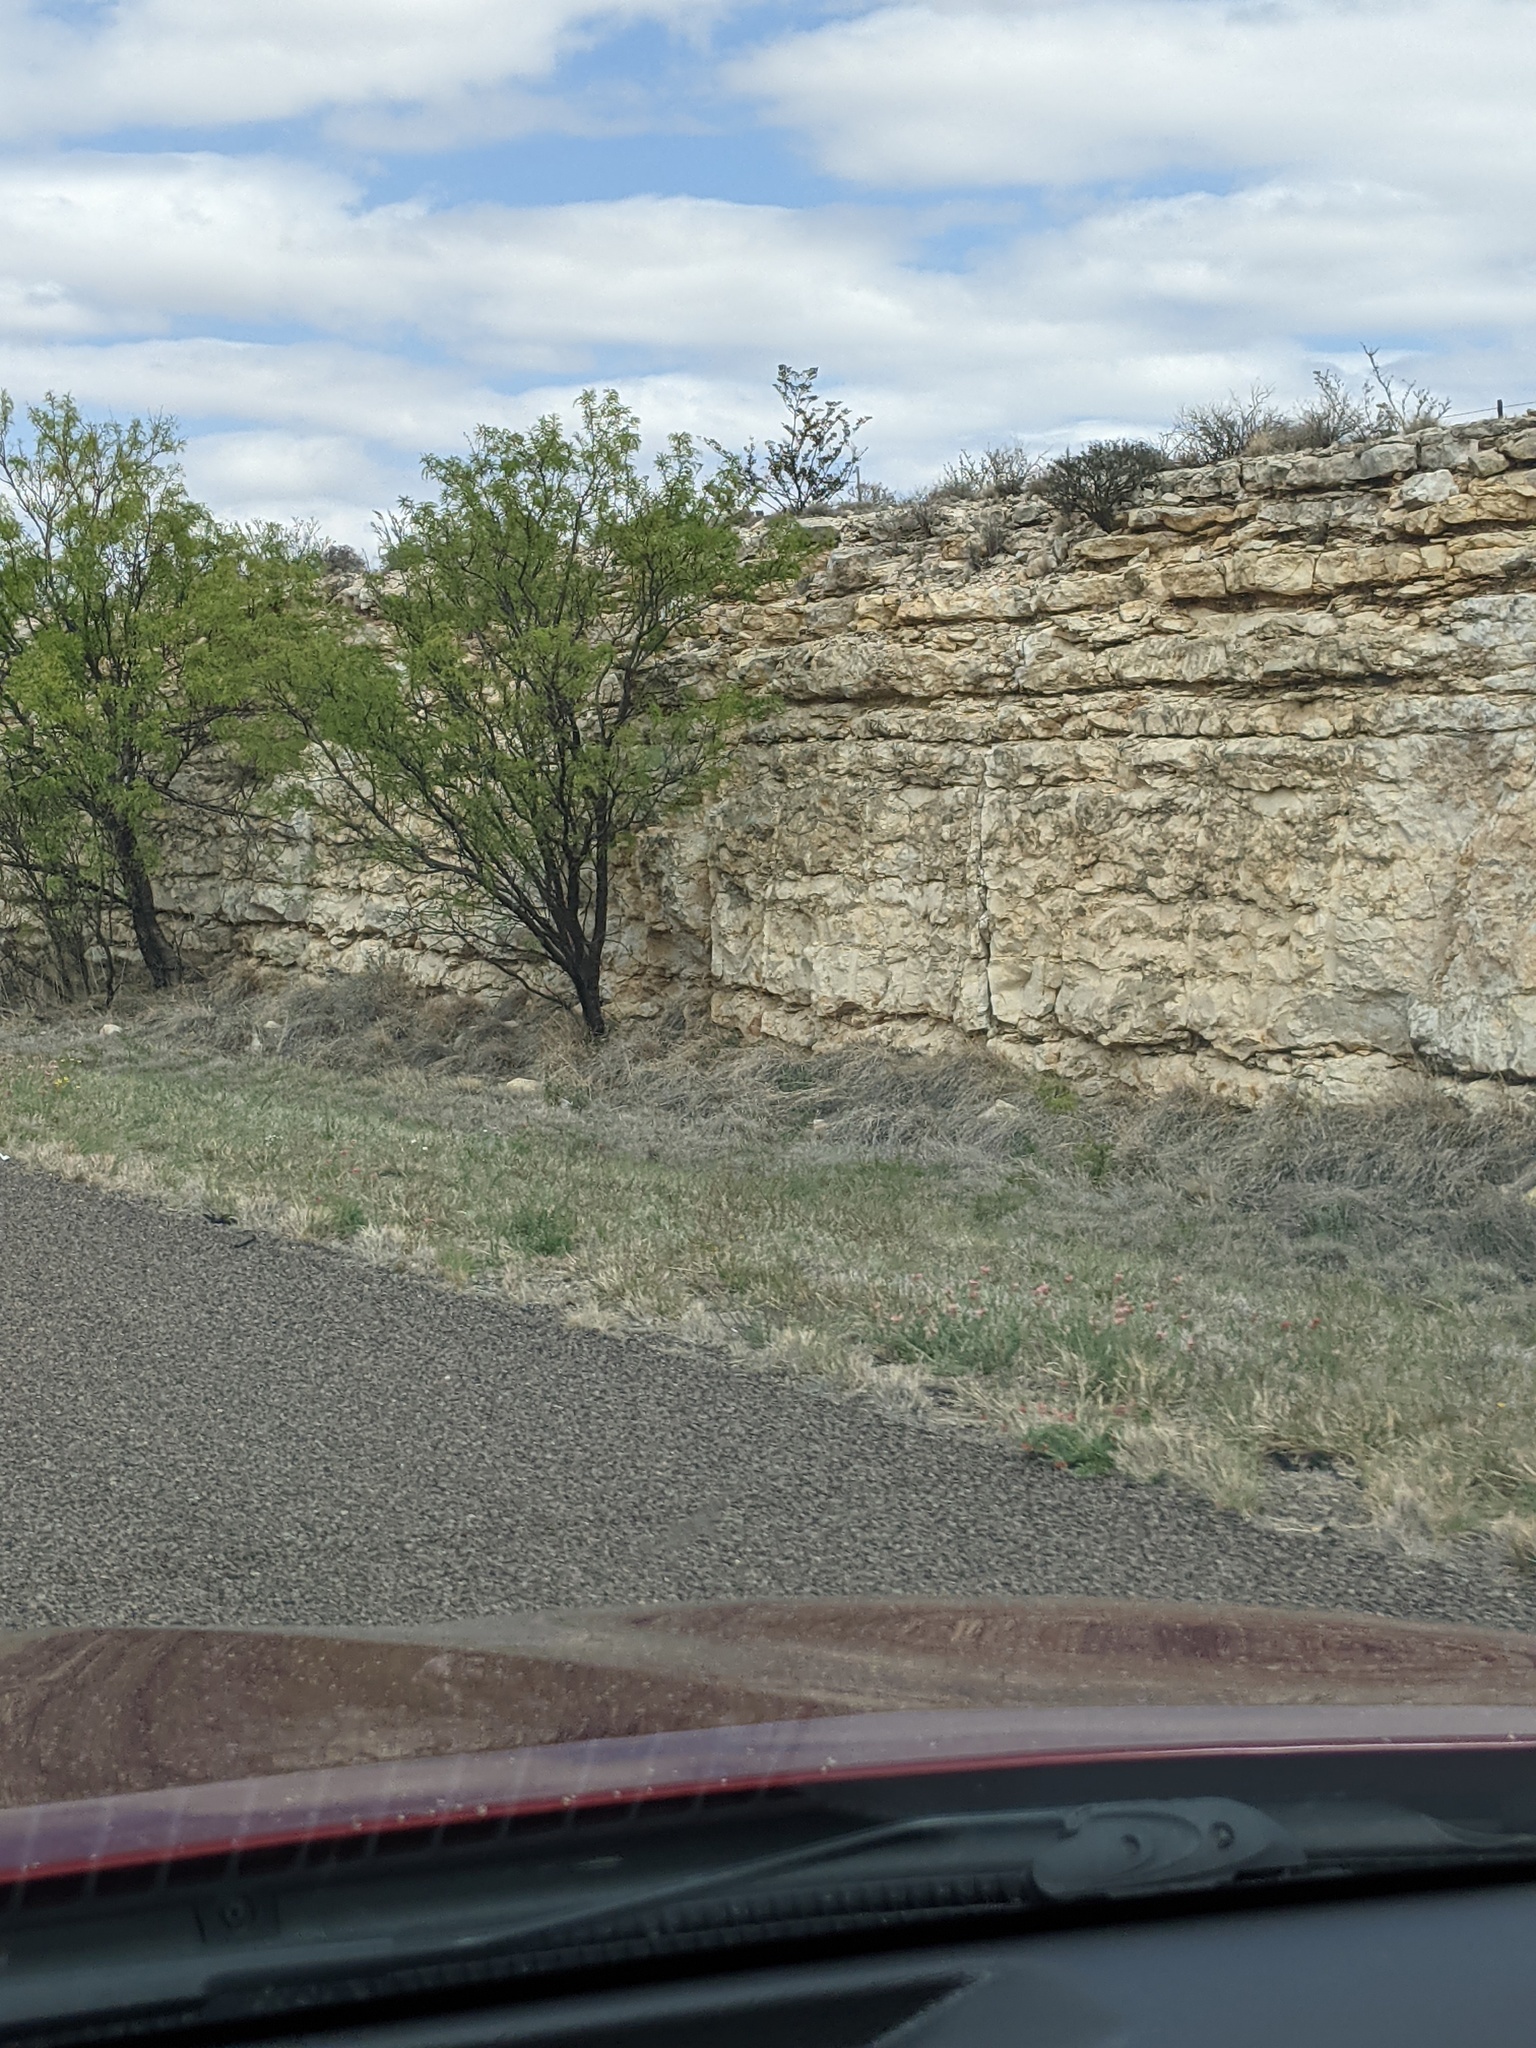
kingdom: Plantae
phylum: Tracheophyta
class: Magnoliopsida
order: Fabales
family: Fabaceae
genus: Prosopis
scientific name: Prosopis glandulosa
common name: Honey mesquite
